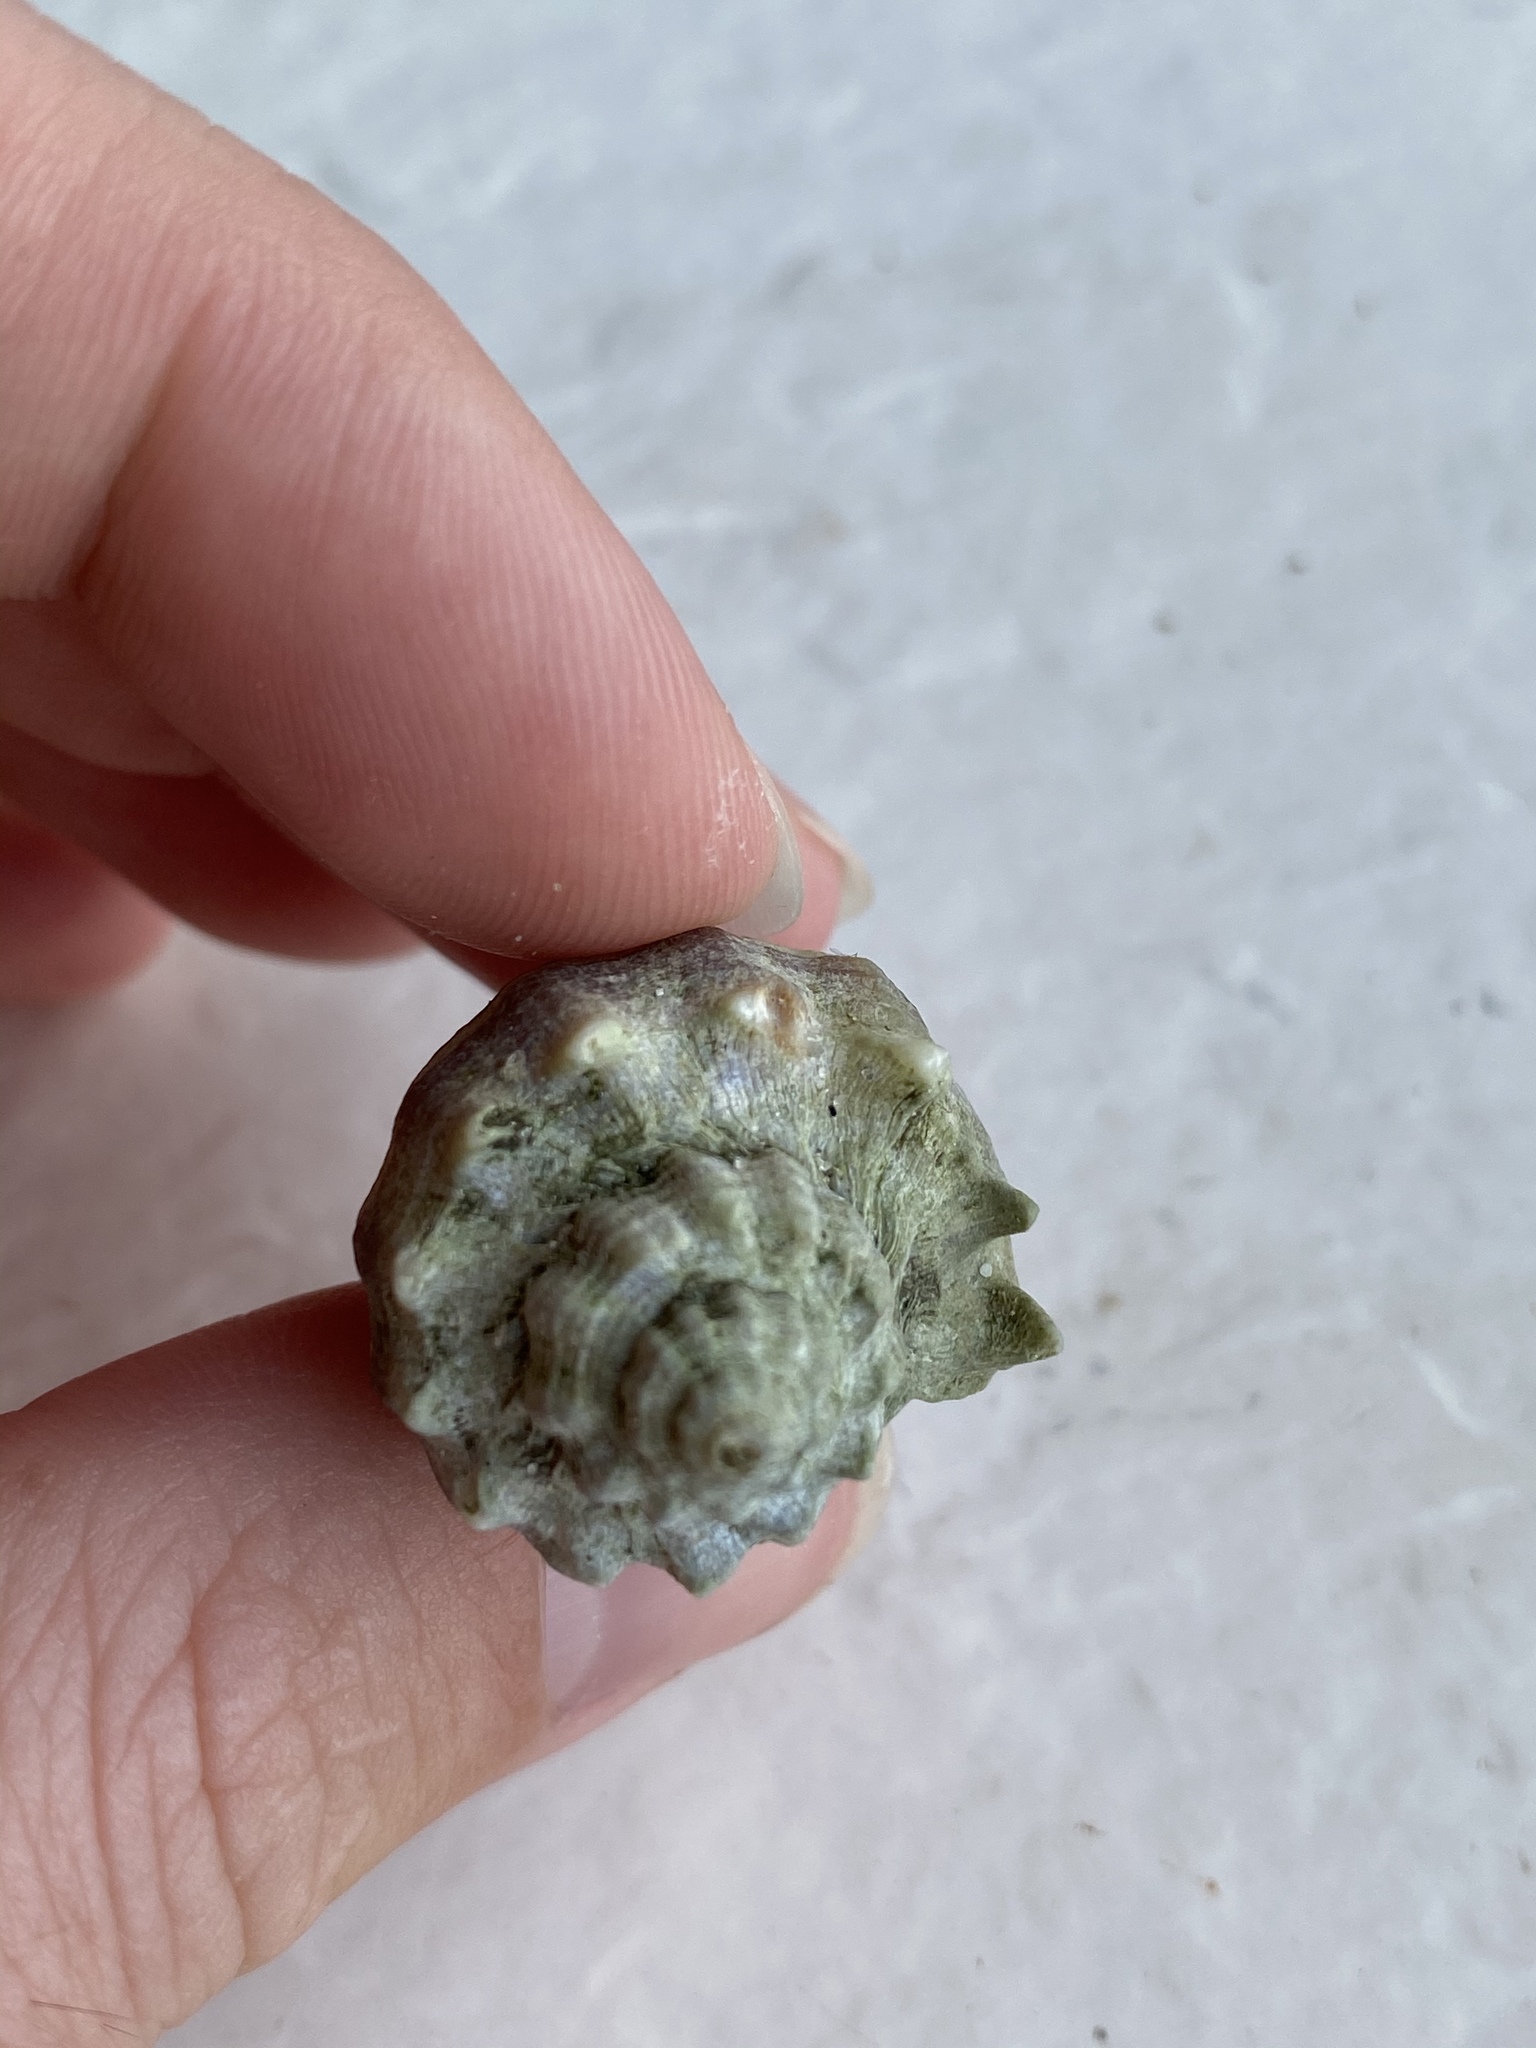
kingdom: Animalia
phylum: Mollusca
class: Gastropoda
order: Neogastropoda
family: Melongenidae
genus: Melongena
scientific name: Melongena corona
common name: American crown conch
